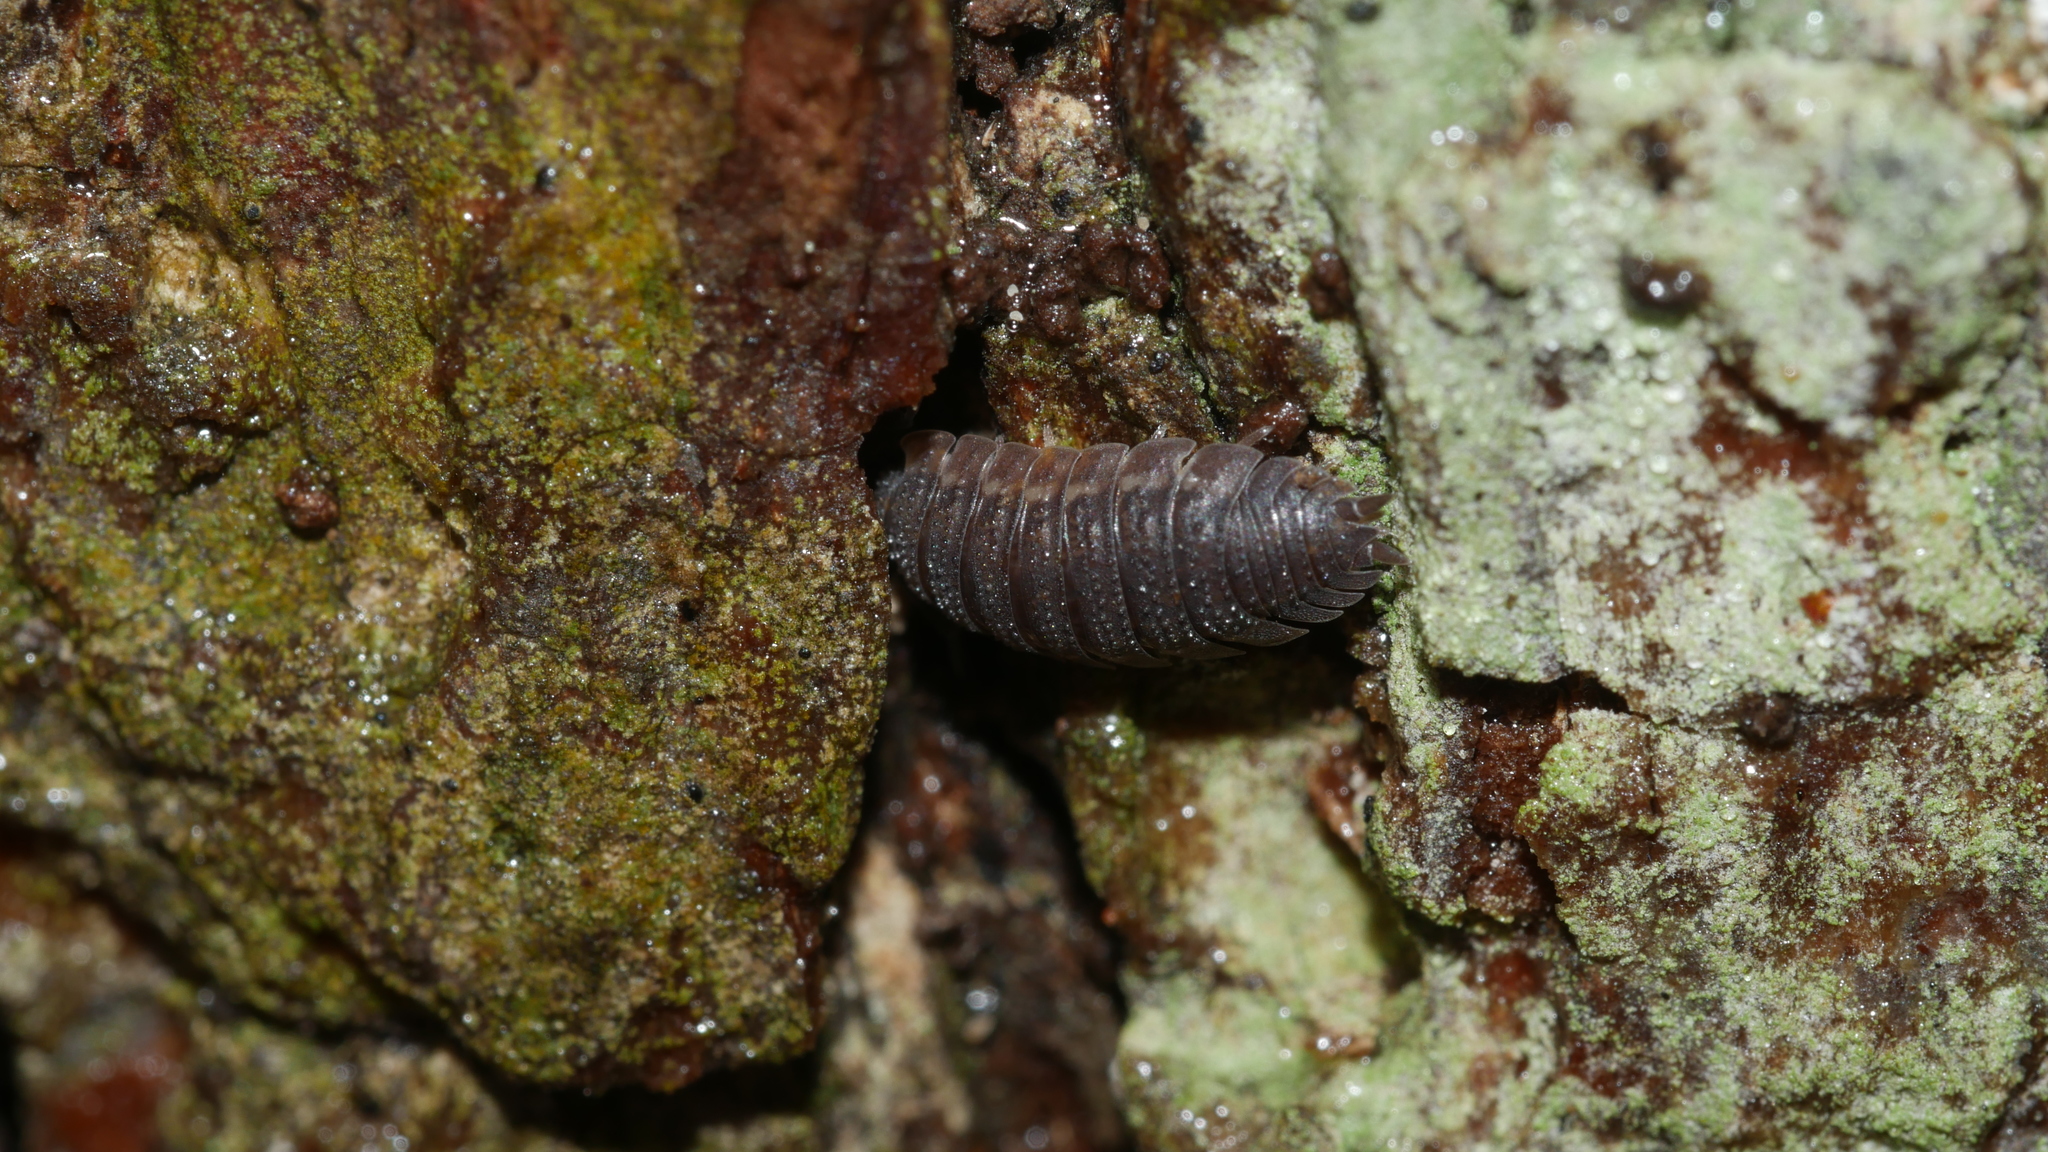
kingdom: Animalia
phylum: Arthropoda
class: Malacostraca
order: Isopoda
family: Porcellionidae
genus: Porcellio
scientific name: Porcellio scaber
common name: Common rough woodlouse
